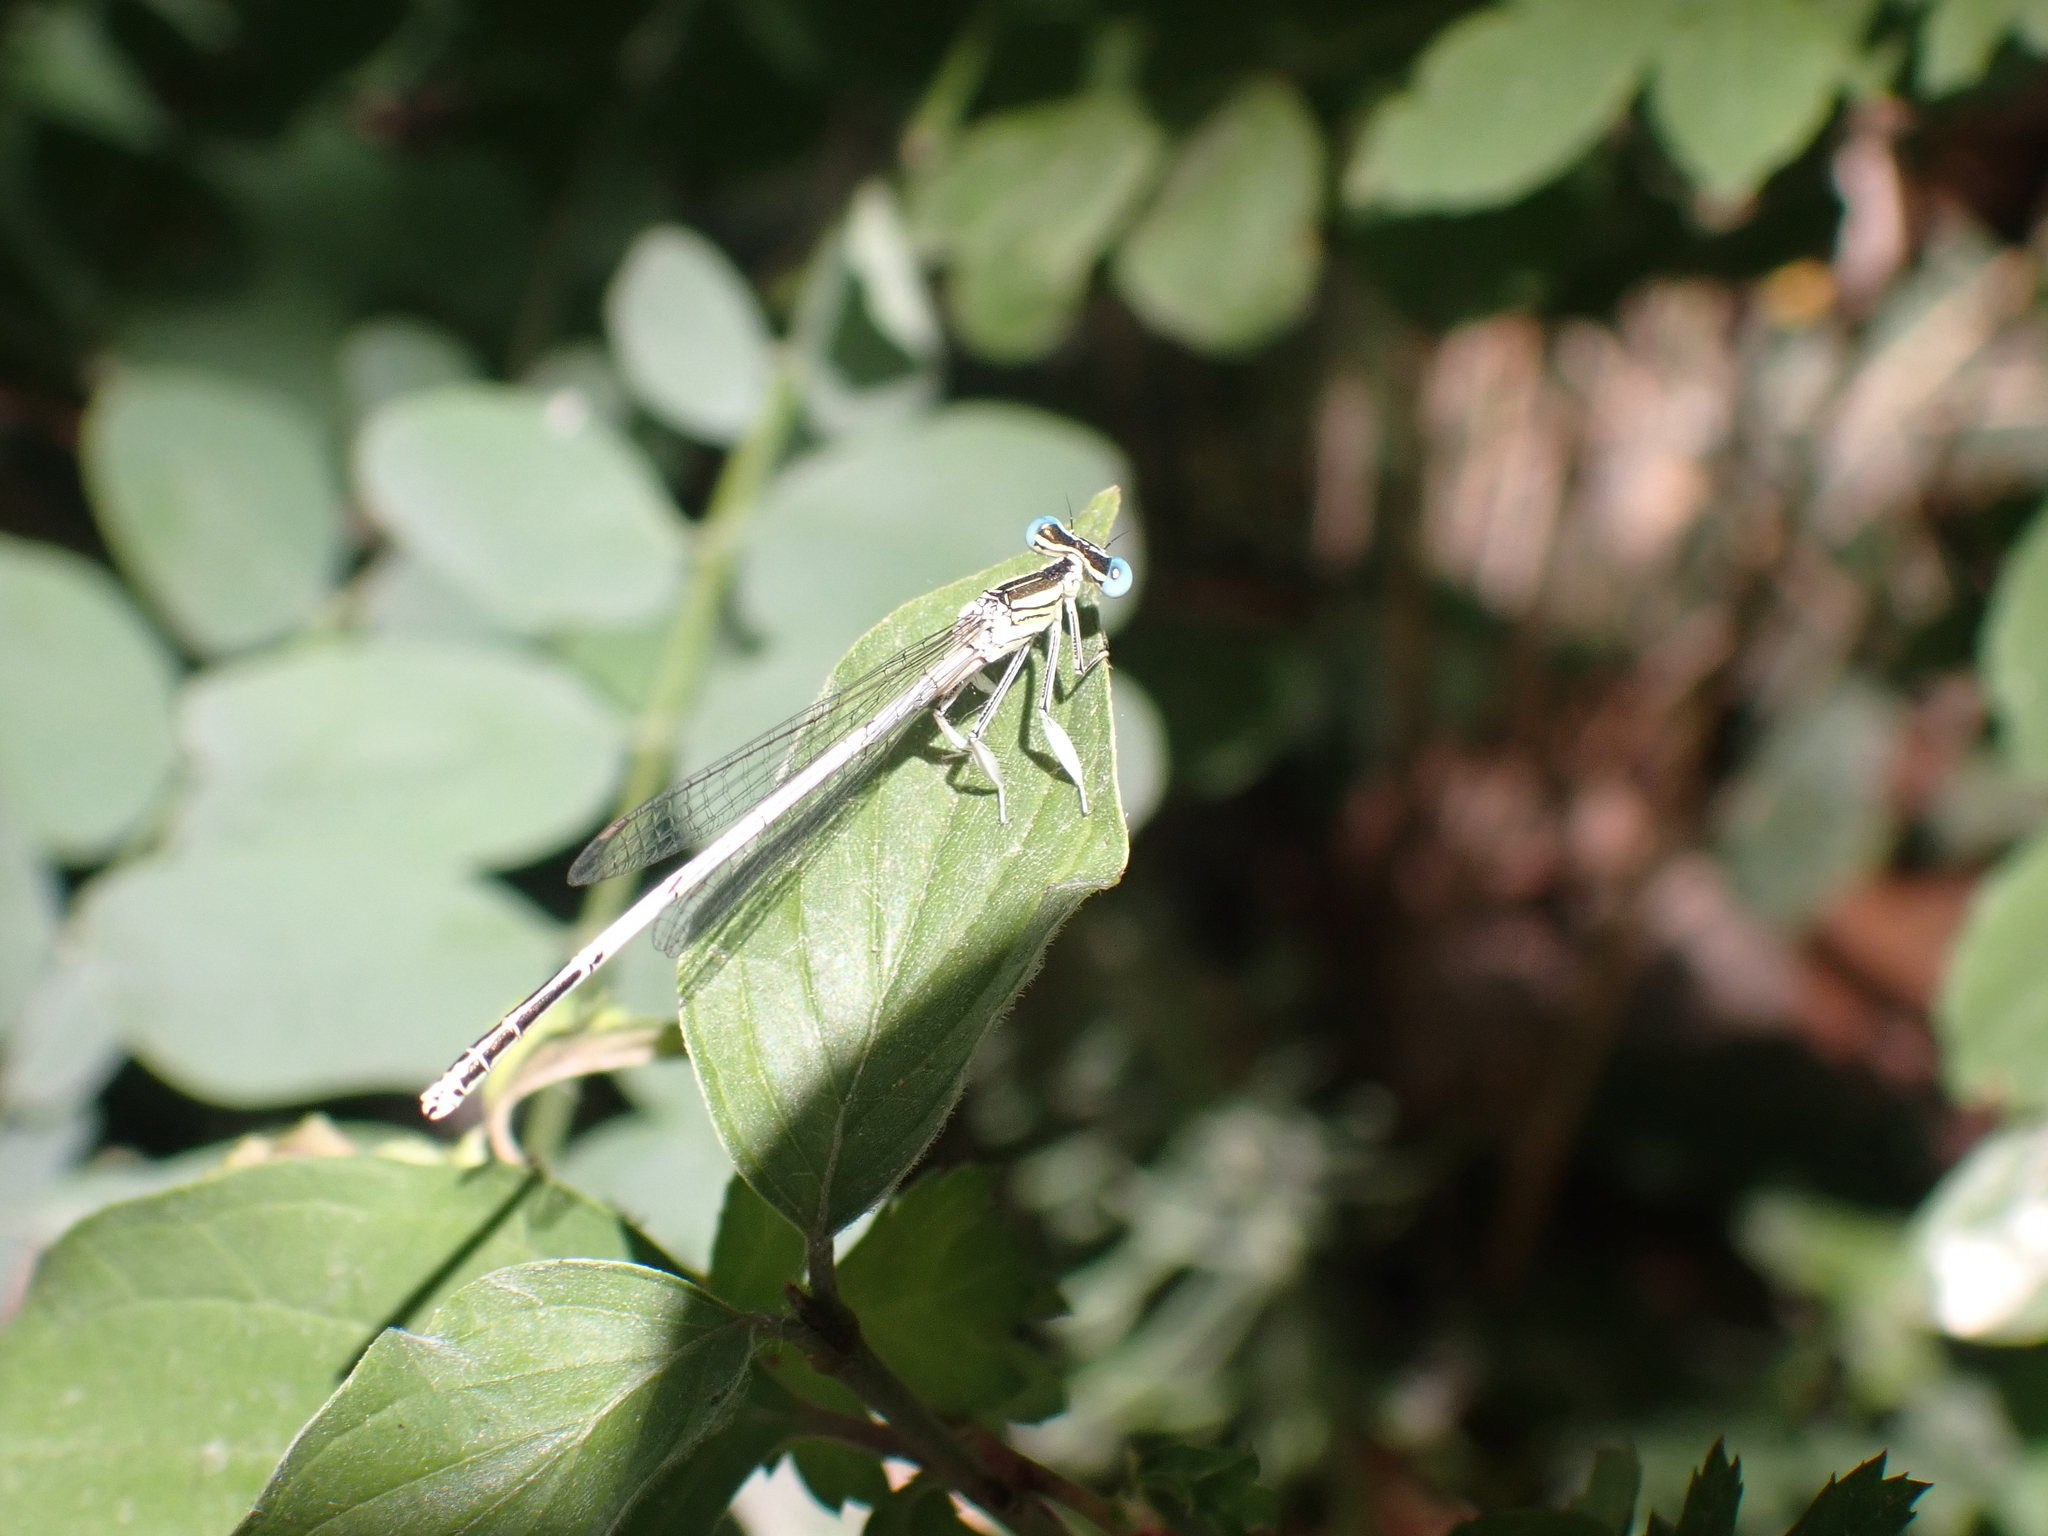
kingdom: Animalia
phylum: Arthropoda
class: Insecta
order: Odonata
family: Platycnemididae
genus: Platycnemis
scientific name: Platycnemis latipes
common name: White featherleg
